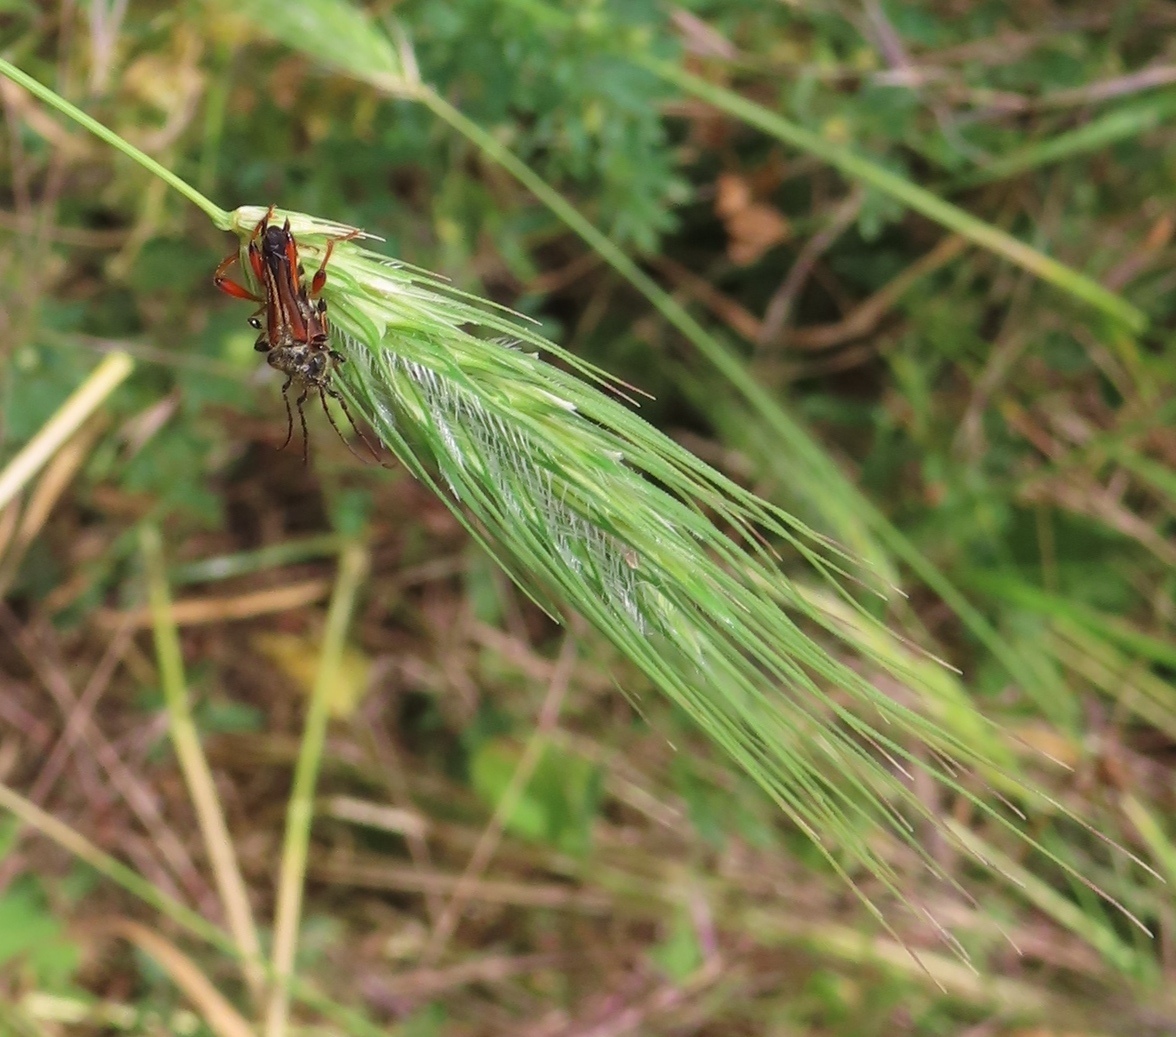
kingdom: Animalia
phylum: Arthropoda
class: Insecta
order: Coleoptera
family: Cerambycidae
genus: Stenopterus
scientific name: Stenopterus rufus
